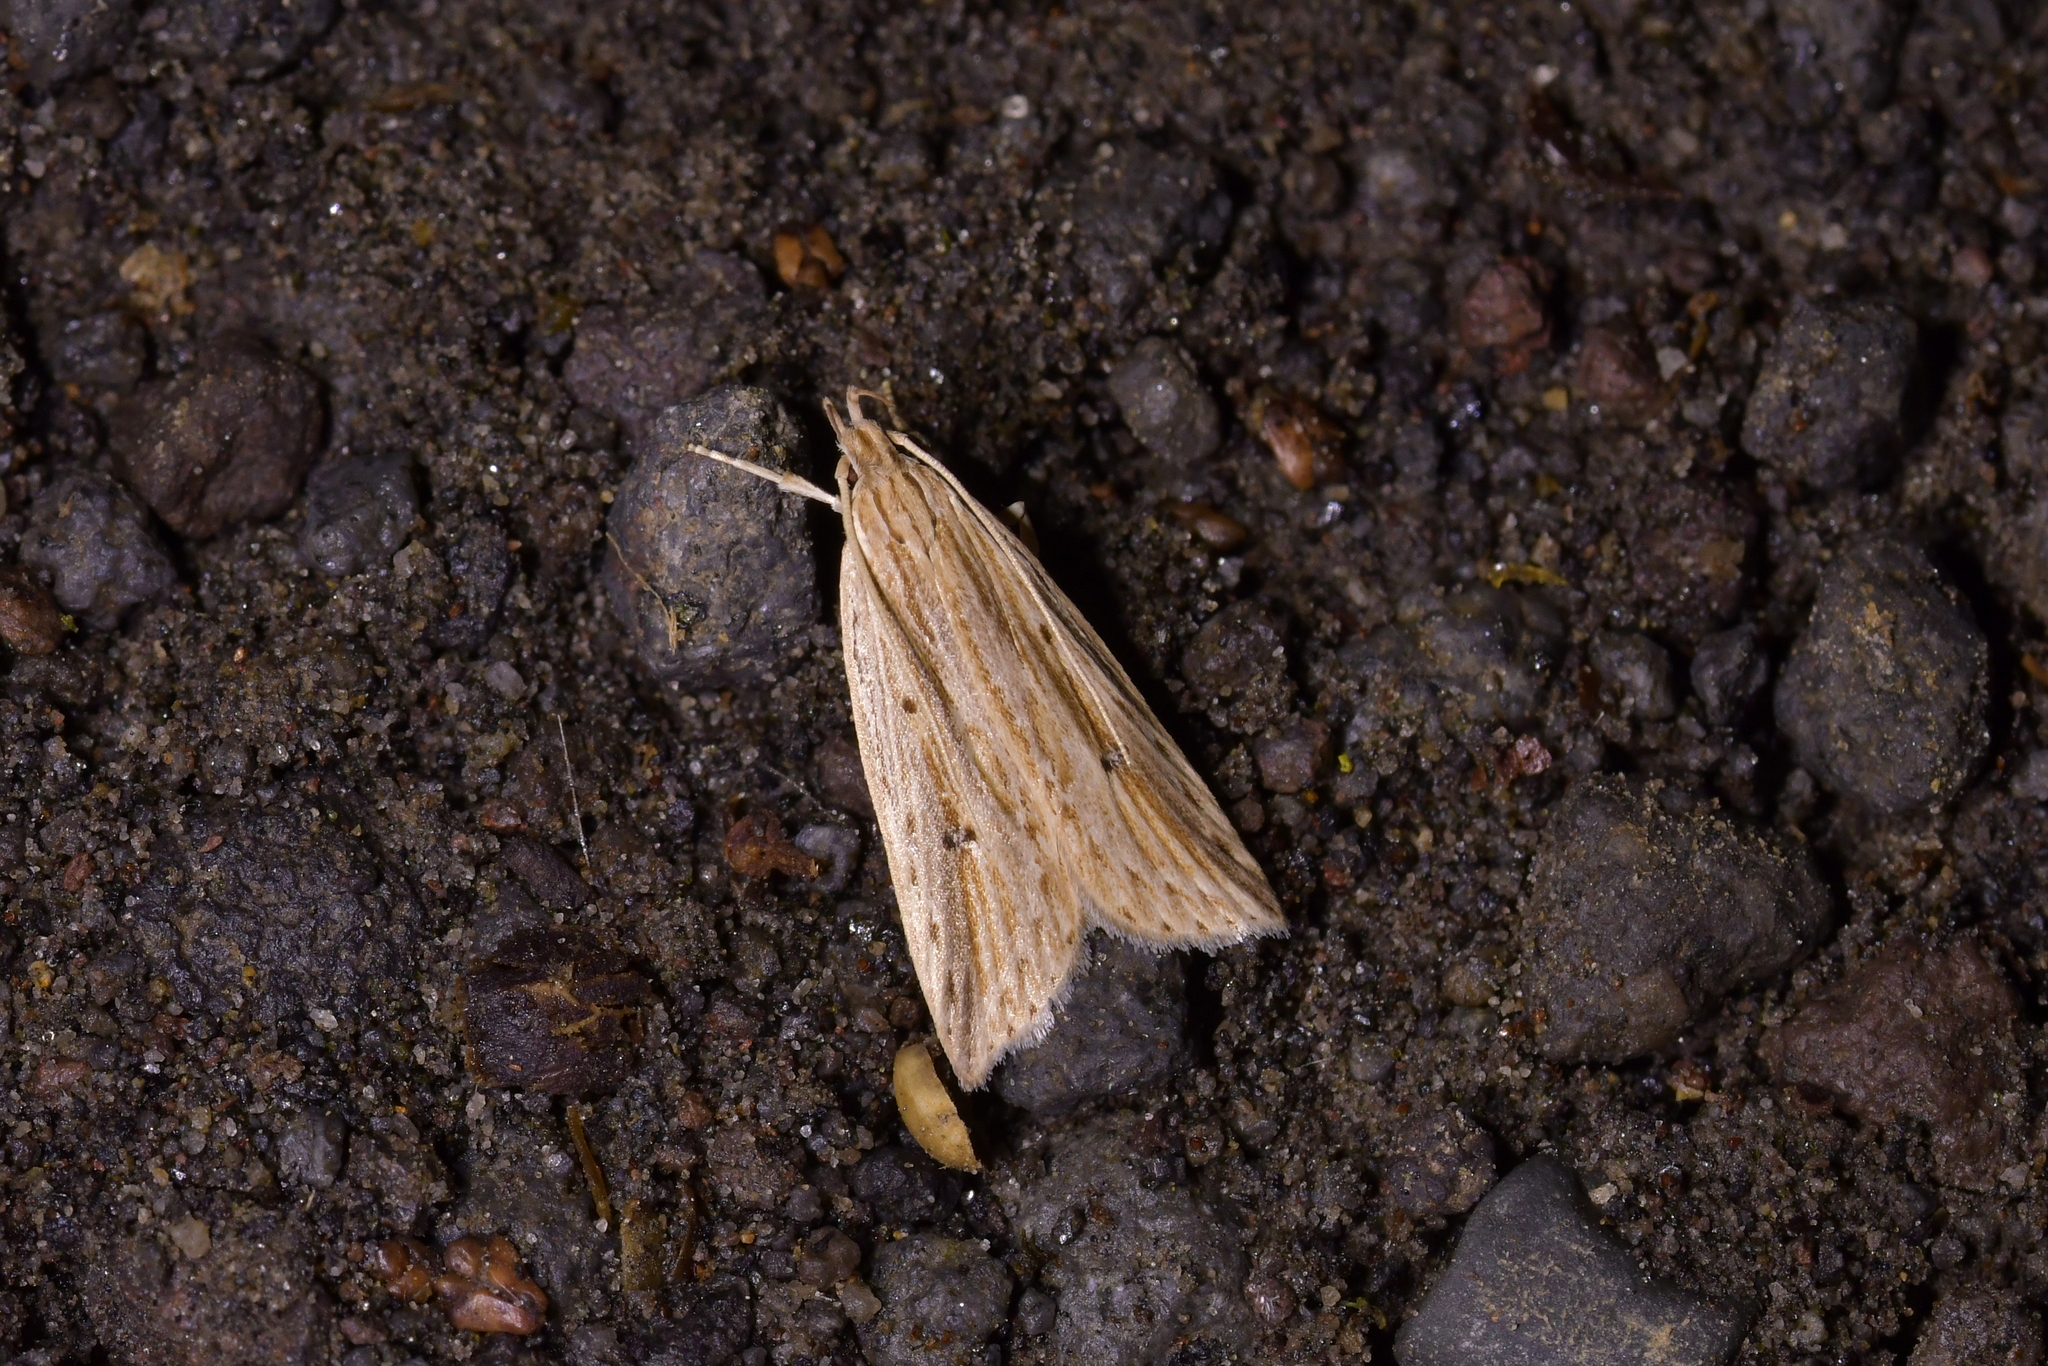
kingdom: Animalia
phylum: Arthropoda
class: Insecta
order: Lepidoptera
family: Xyloryctidae
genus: Donacostola
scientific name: Donacostola notabilis
